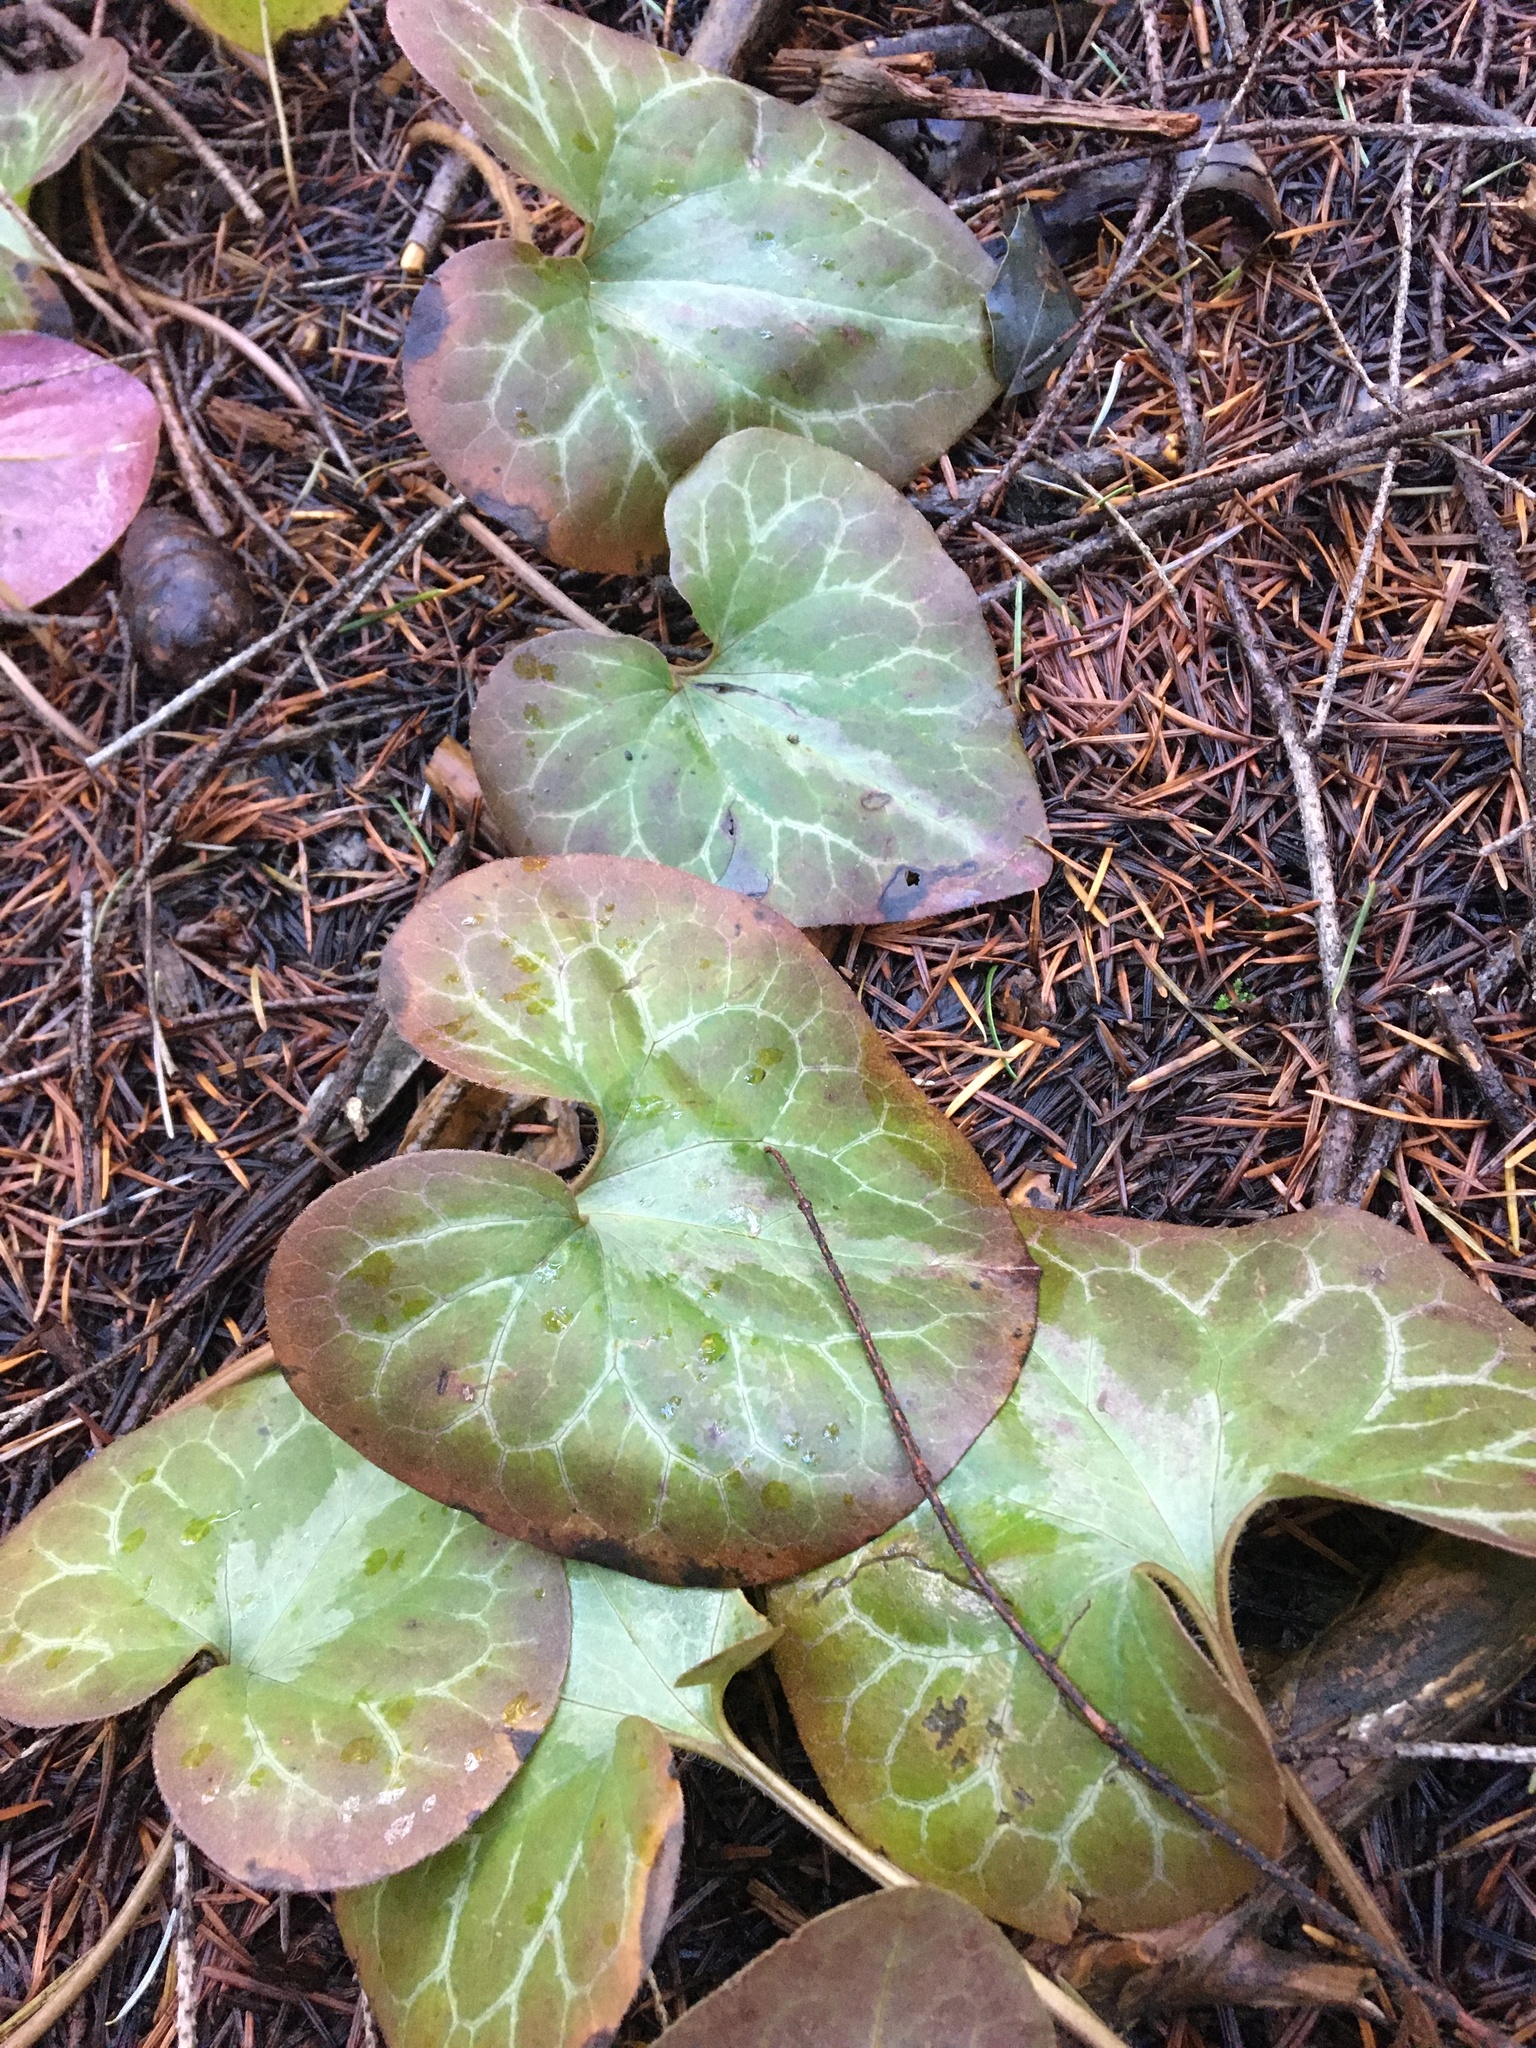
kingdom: Plantae
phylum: Tracheophyta
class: Magnoliopsida
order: Piperales
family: Aristolochiaceae
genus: Asarum
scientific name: Asarum hartwegii
